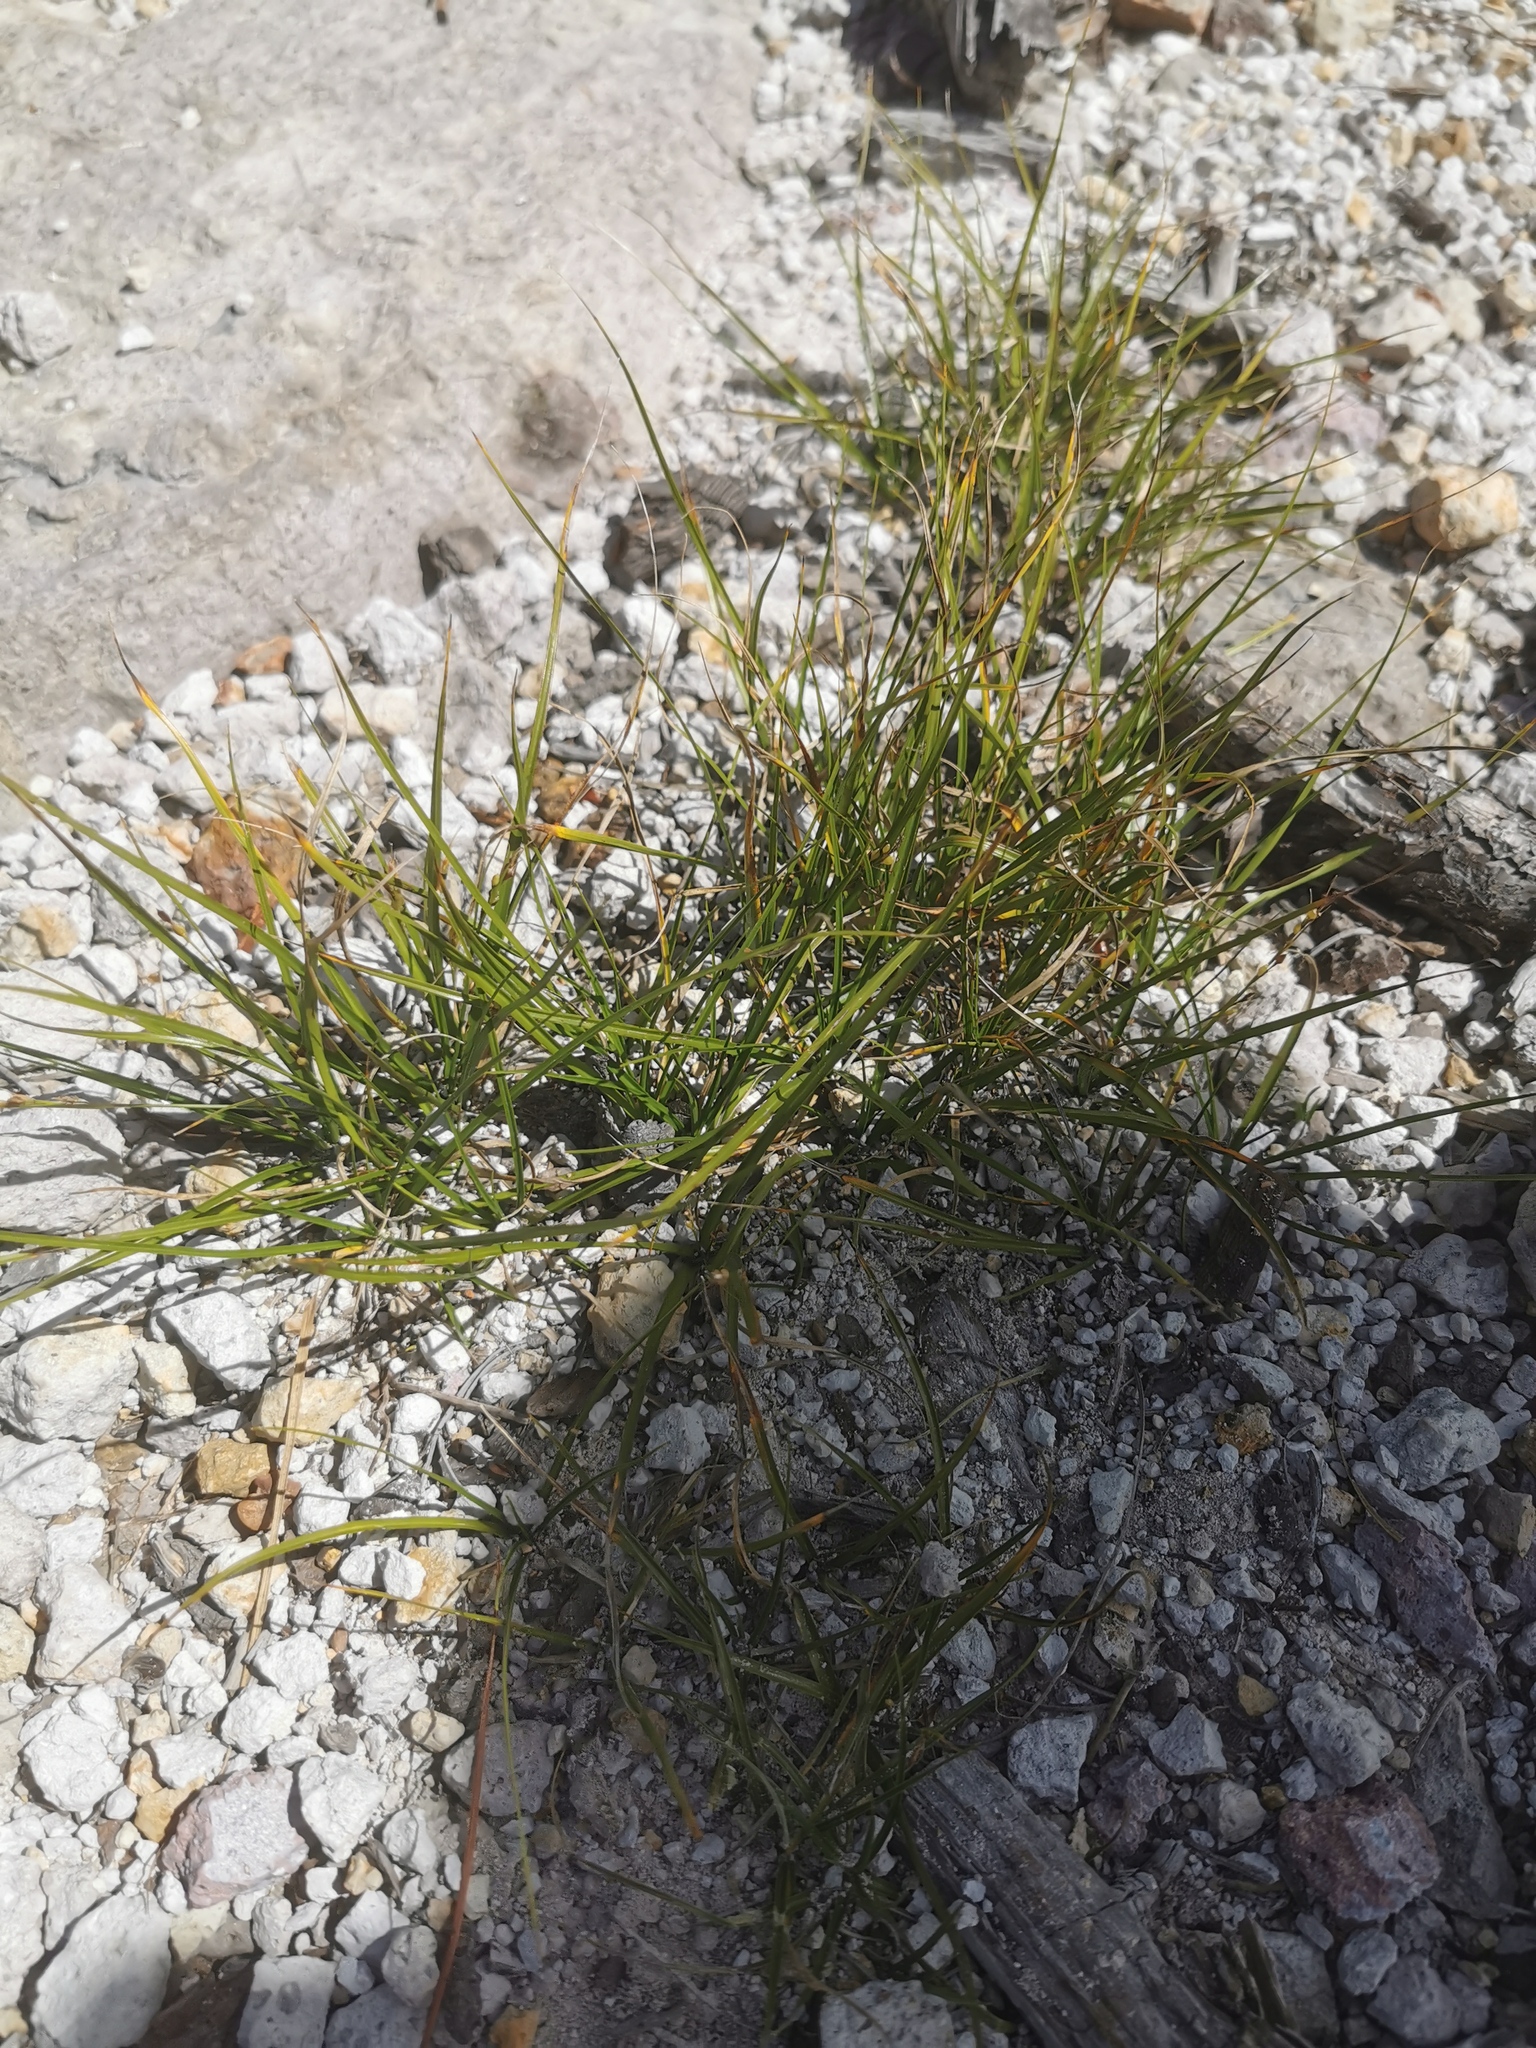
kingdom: Plantae
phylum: Tracheophyta
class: Liliopsida
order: Poales
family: Cyperaceae
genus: Rhynchospora
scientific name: Rhynchospora durangensis
